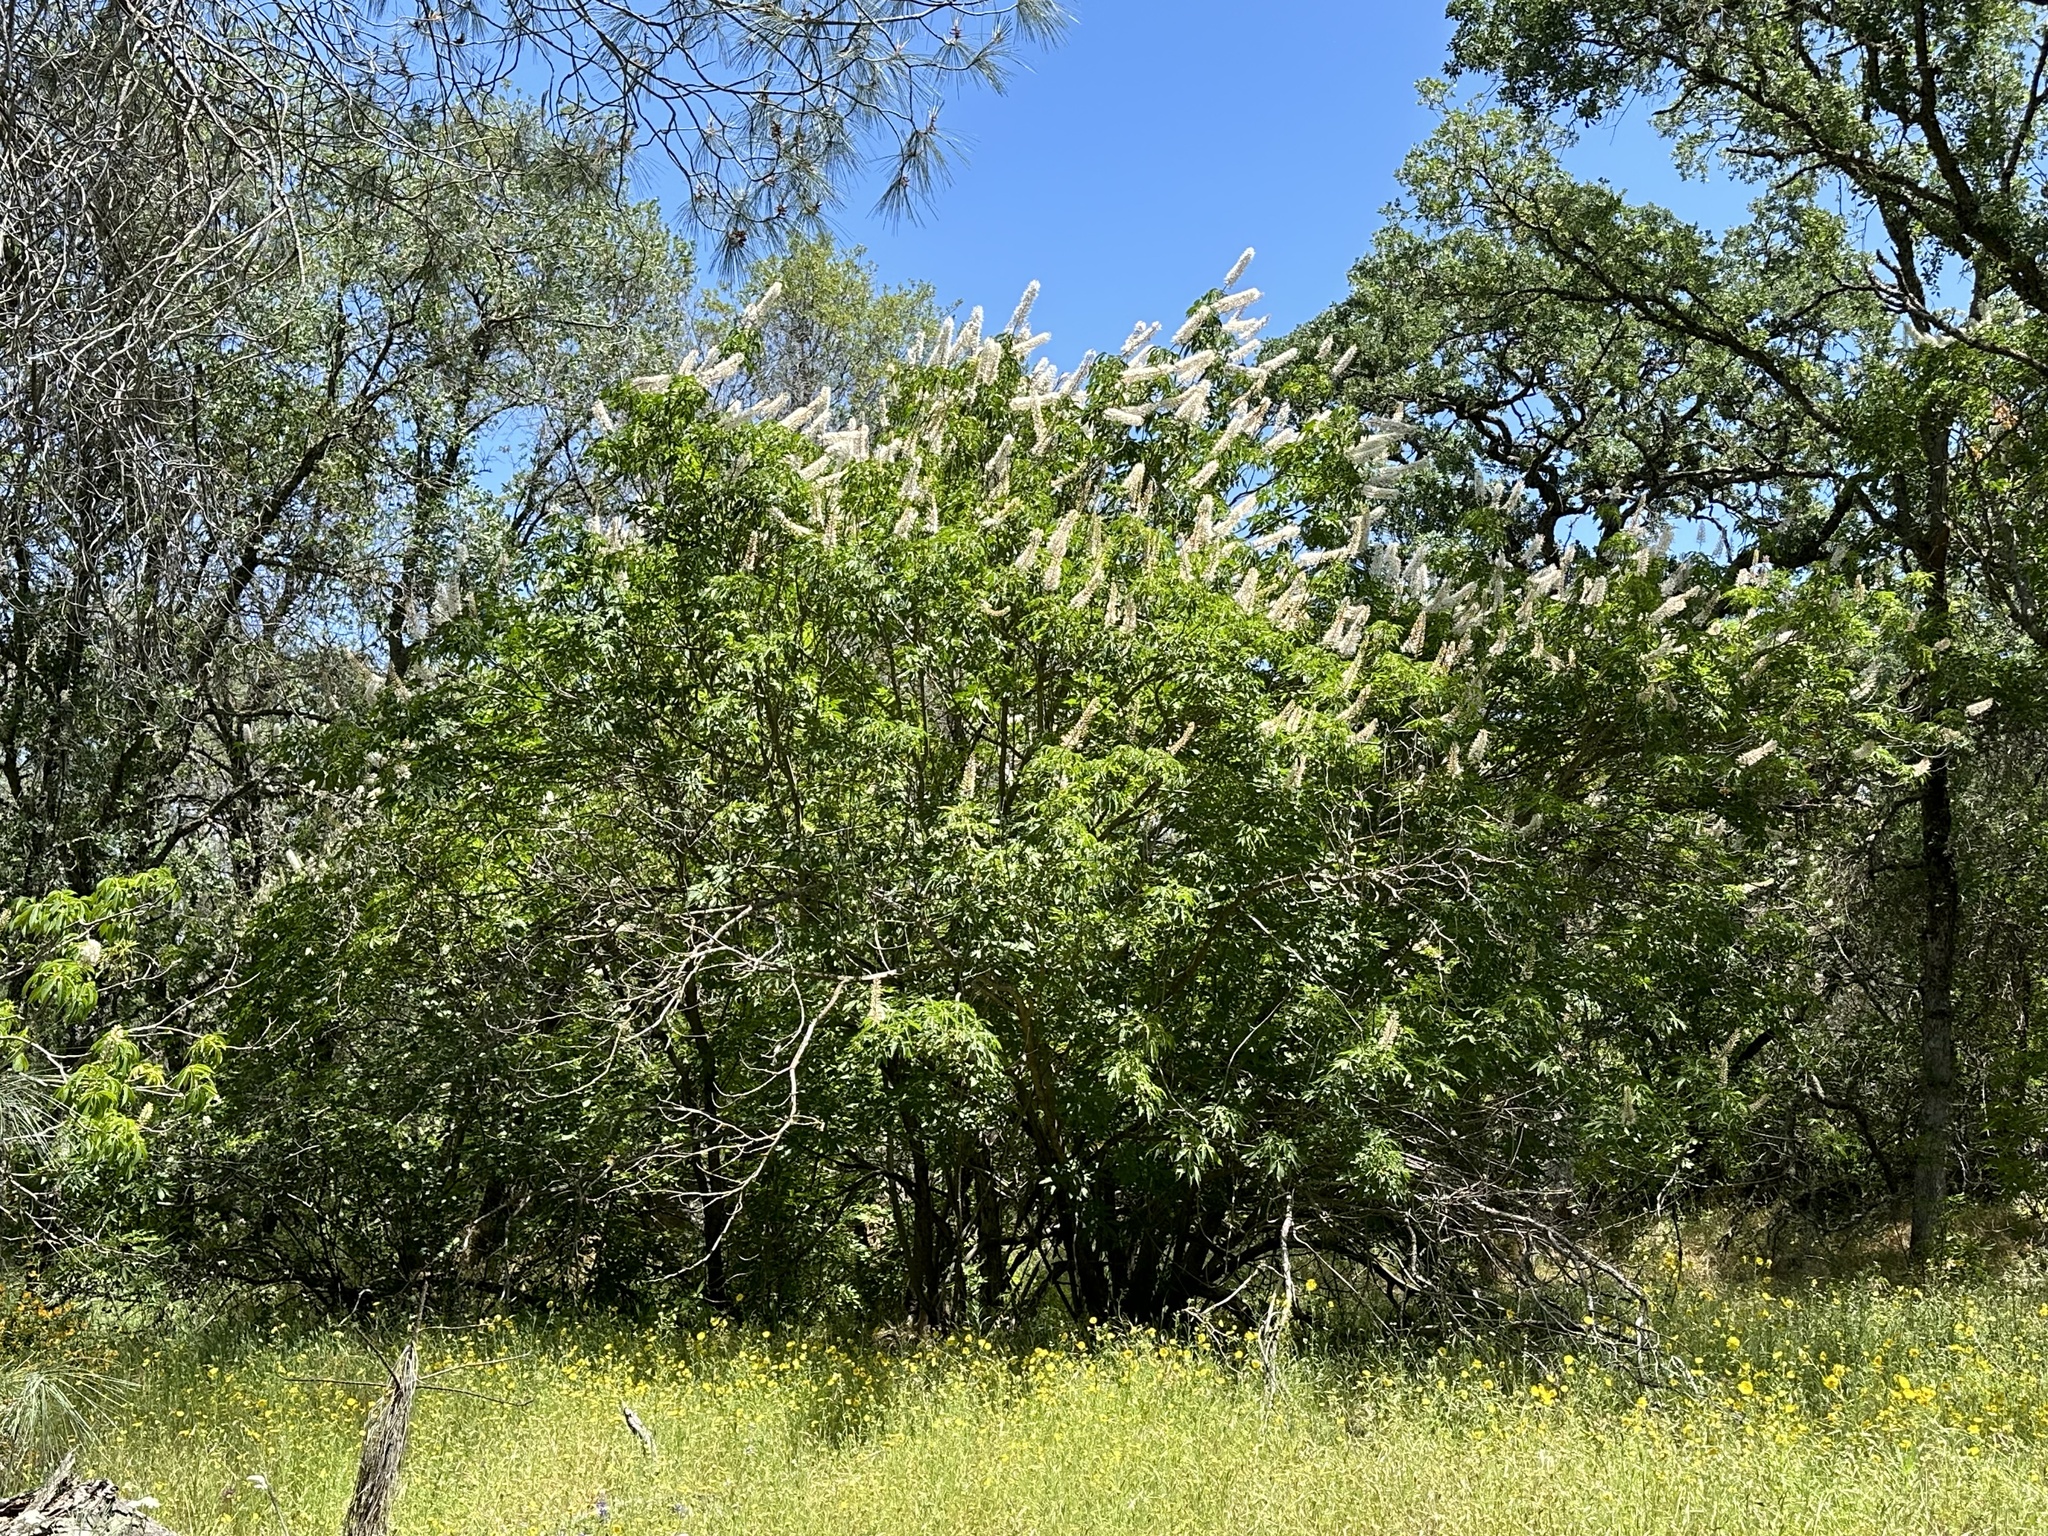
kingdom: Plantae
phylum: Tracheophyta
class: Magnoliopsida
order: Sapindales
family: Sapindaceae
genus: Aesculus
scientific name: Aesculus californica
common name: California buckeye
